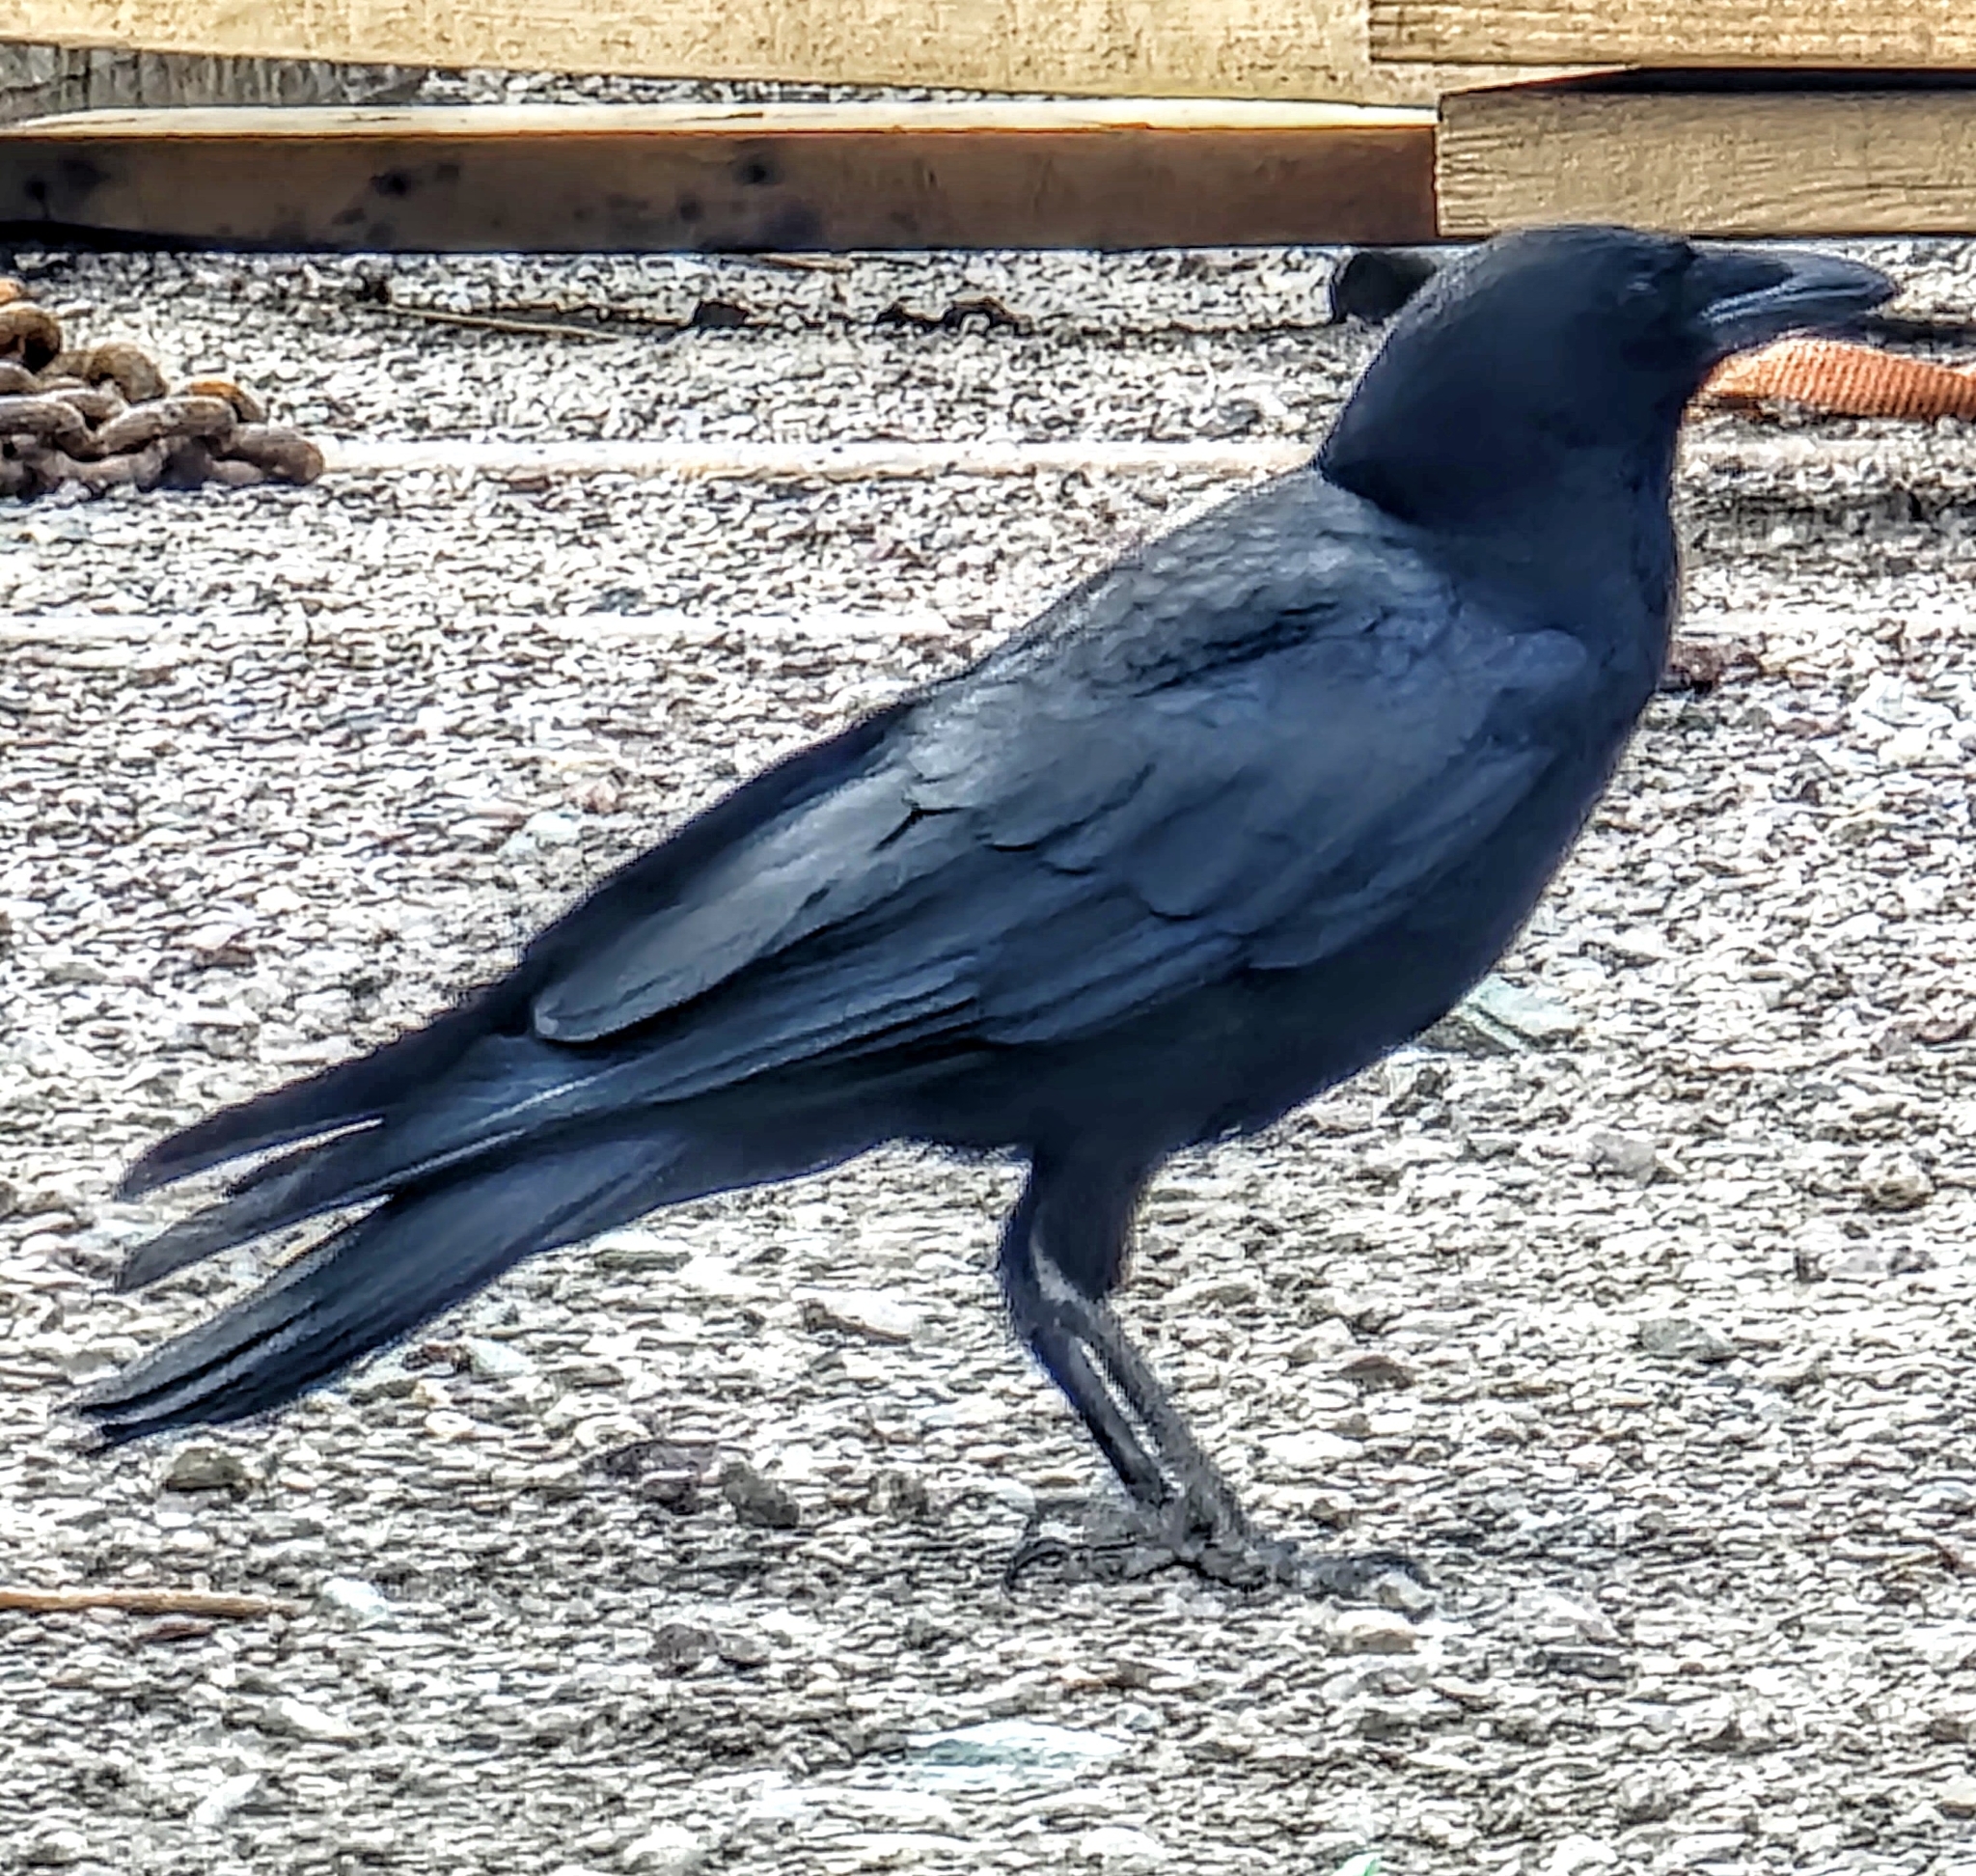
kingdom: Animalia
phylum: Chordata
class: Aves
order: Passeriformes
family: Corvidae
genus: Corvus
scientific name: Corvus brachyrhynchos
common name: American crow
